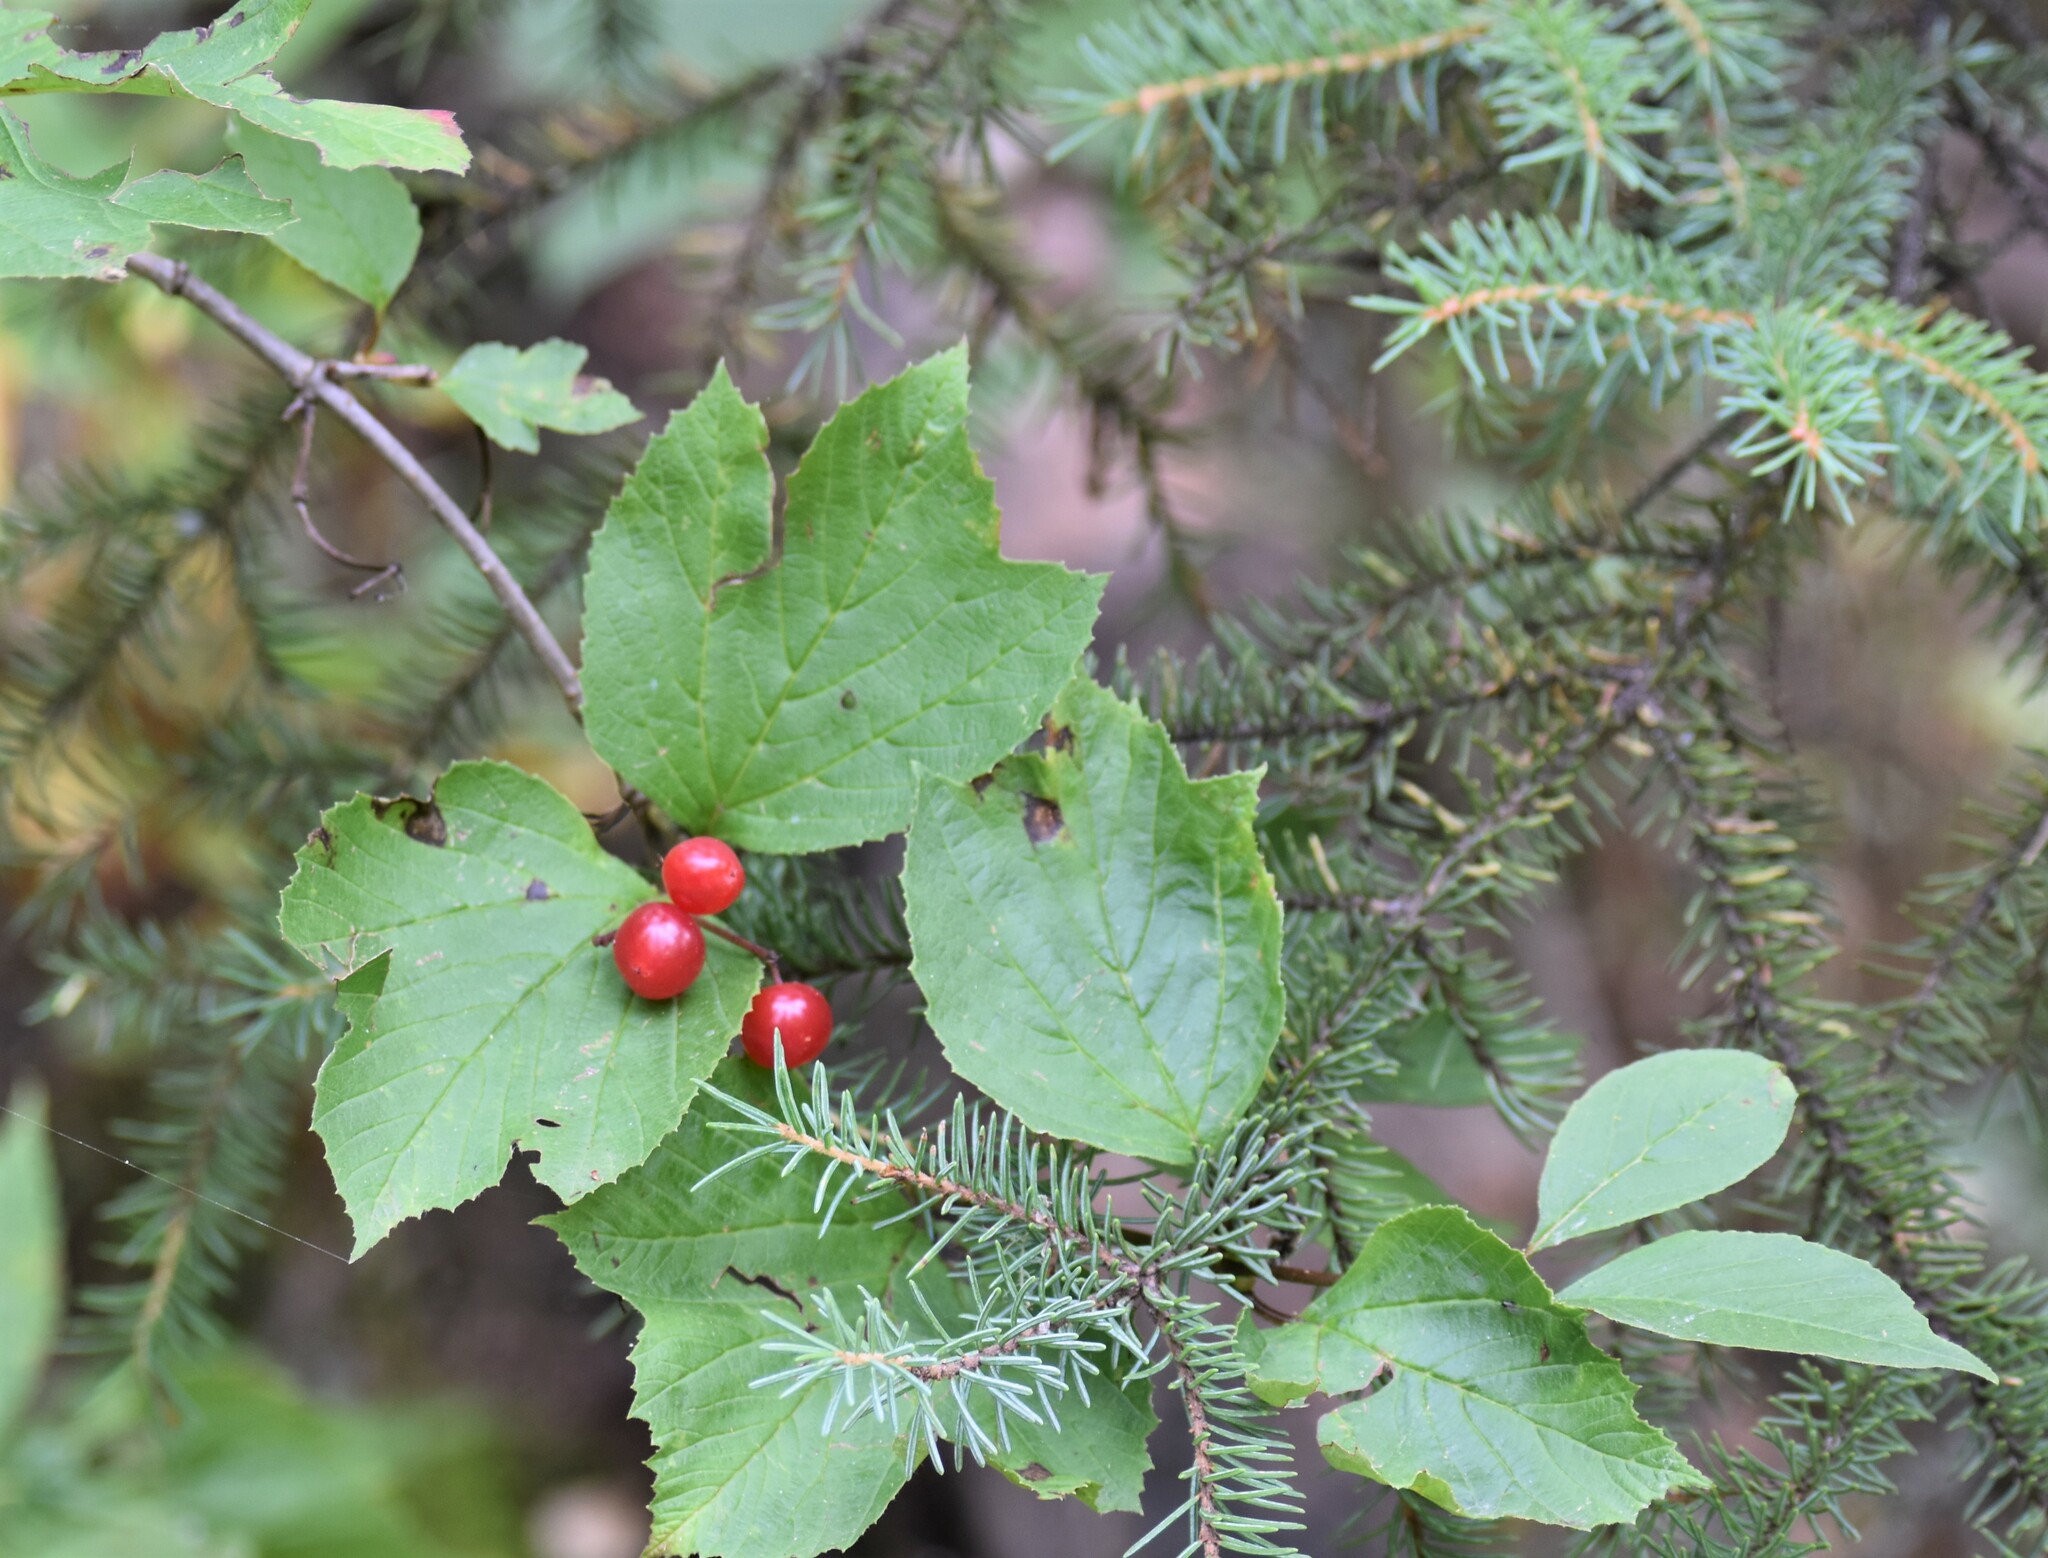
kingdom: Plantae
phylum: Tracheophyta
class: Magnoliopsida
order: Dipsacales
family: Viburnaceae
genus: Viburnum
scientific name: Viburnum edule
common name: Mooseberry
